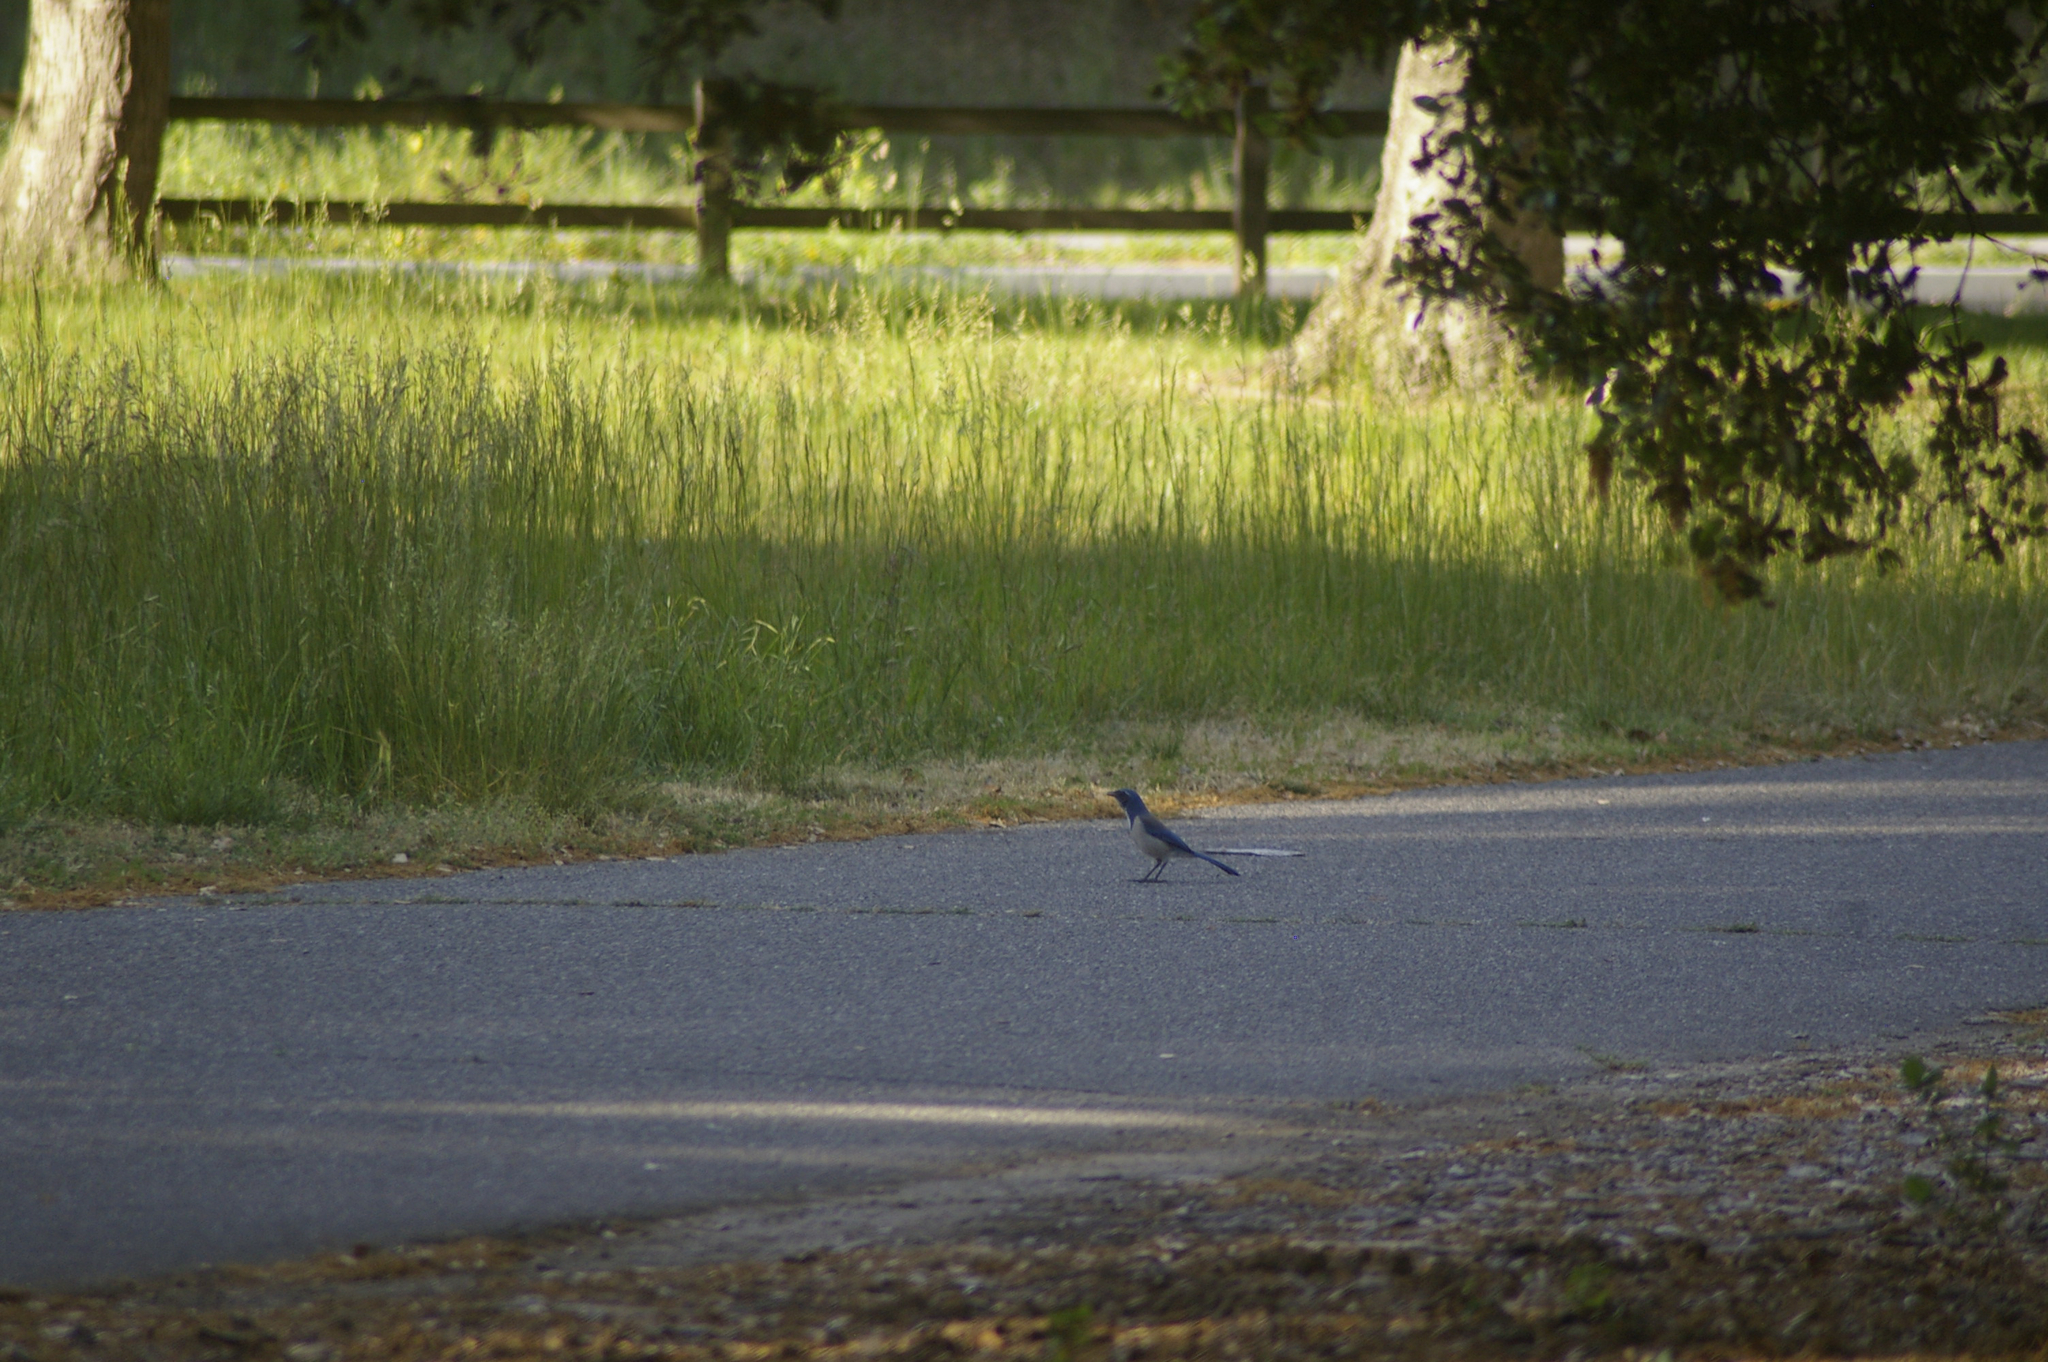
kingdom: Animalia
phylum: Chordata
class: Aves
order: Passeriformes
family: Corvidae
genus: Aphelocoma
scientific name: Aphelocoma californica
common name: California scrub-jay
